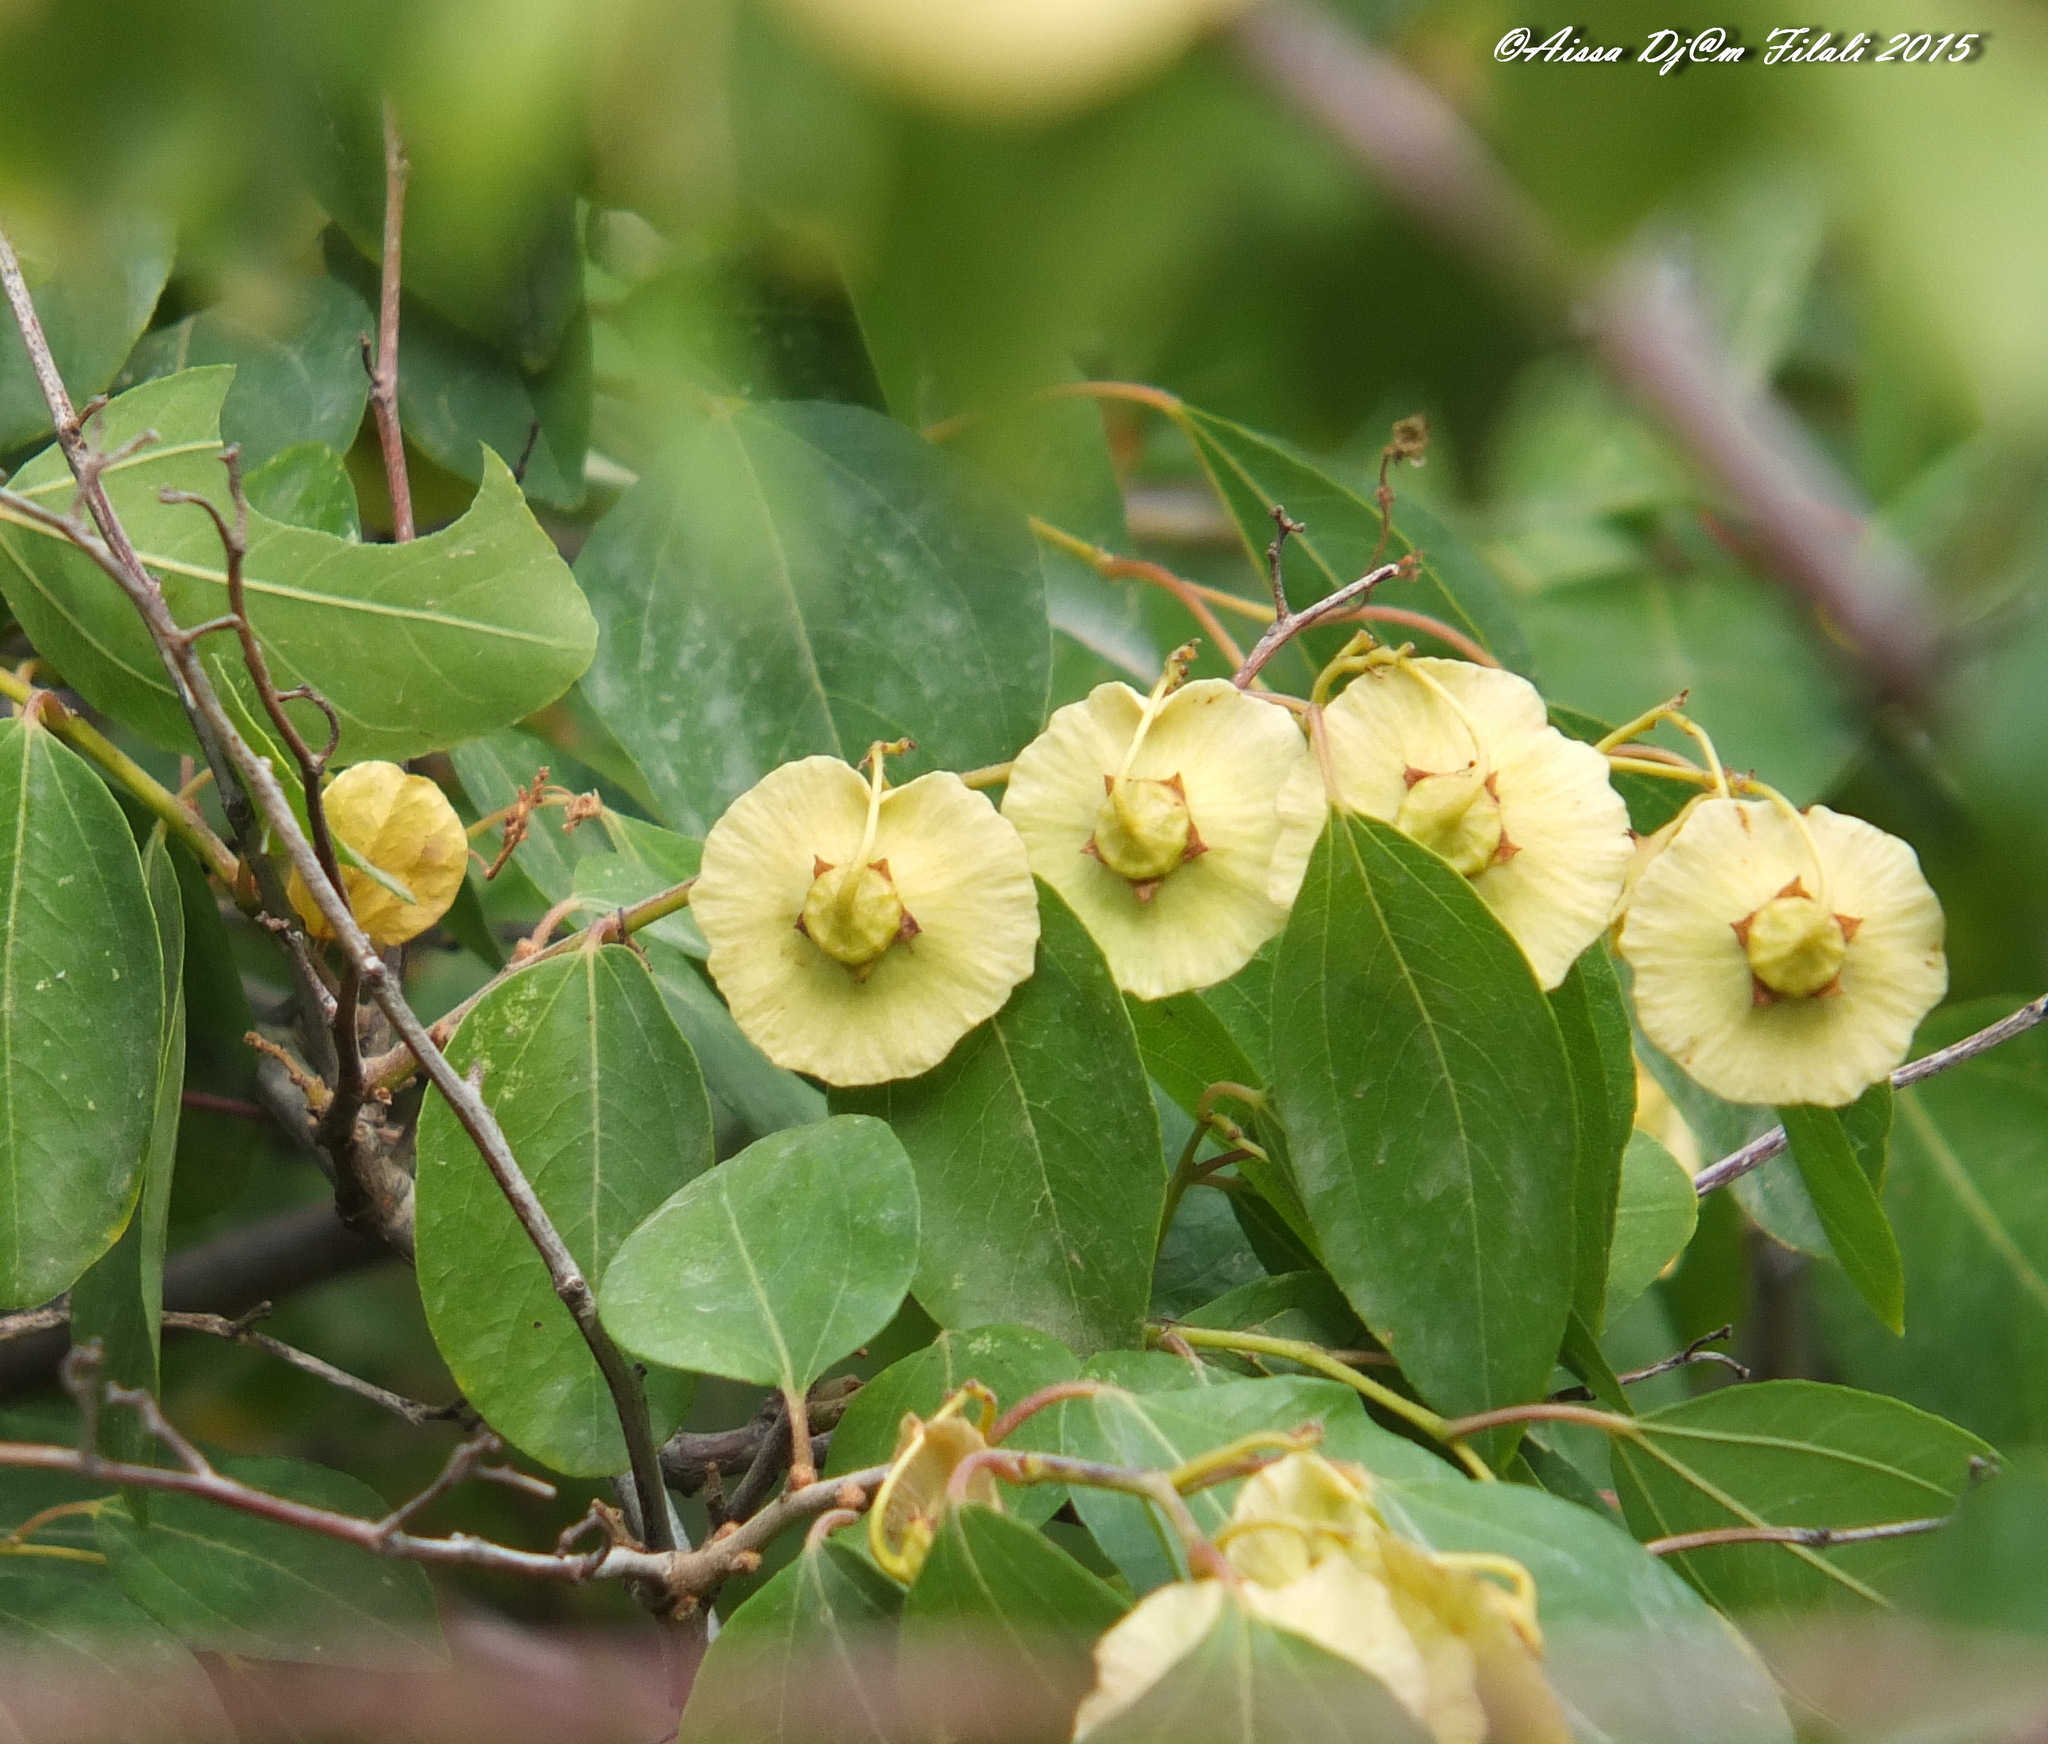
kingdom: Plantae
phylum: Tracheophyta
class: Magnoliopsida
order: Rosales
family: Rhamnaceae
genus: Paliurus
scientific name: Paliurus spina-christi
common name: Jeruselem thorn
